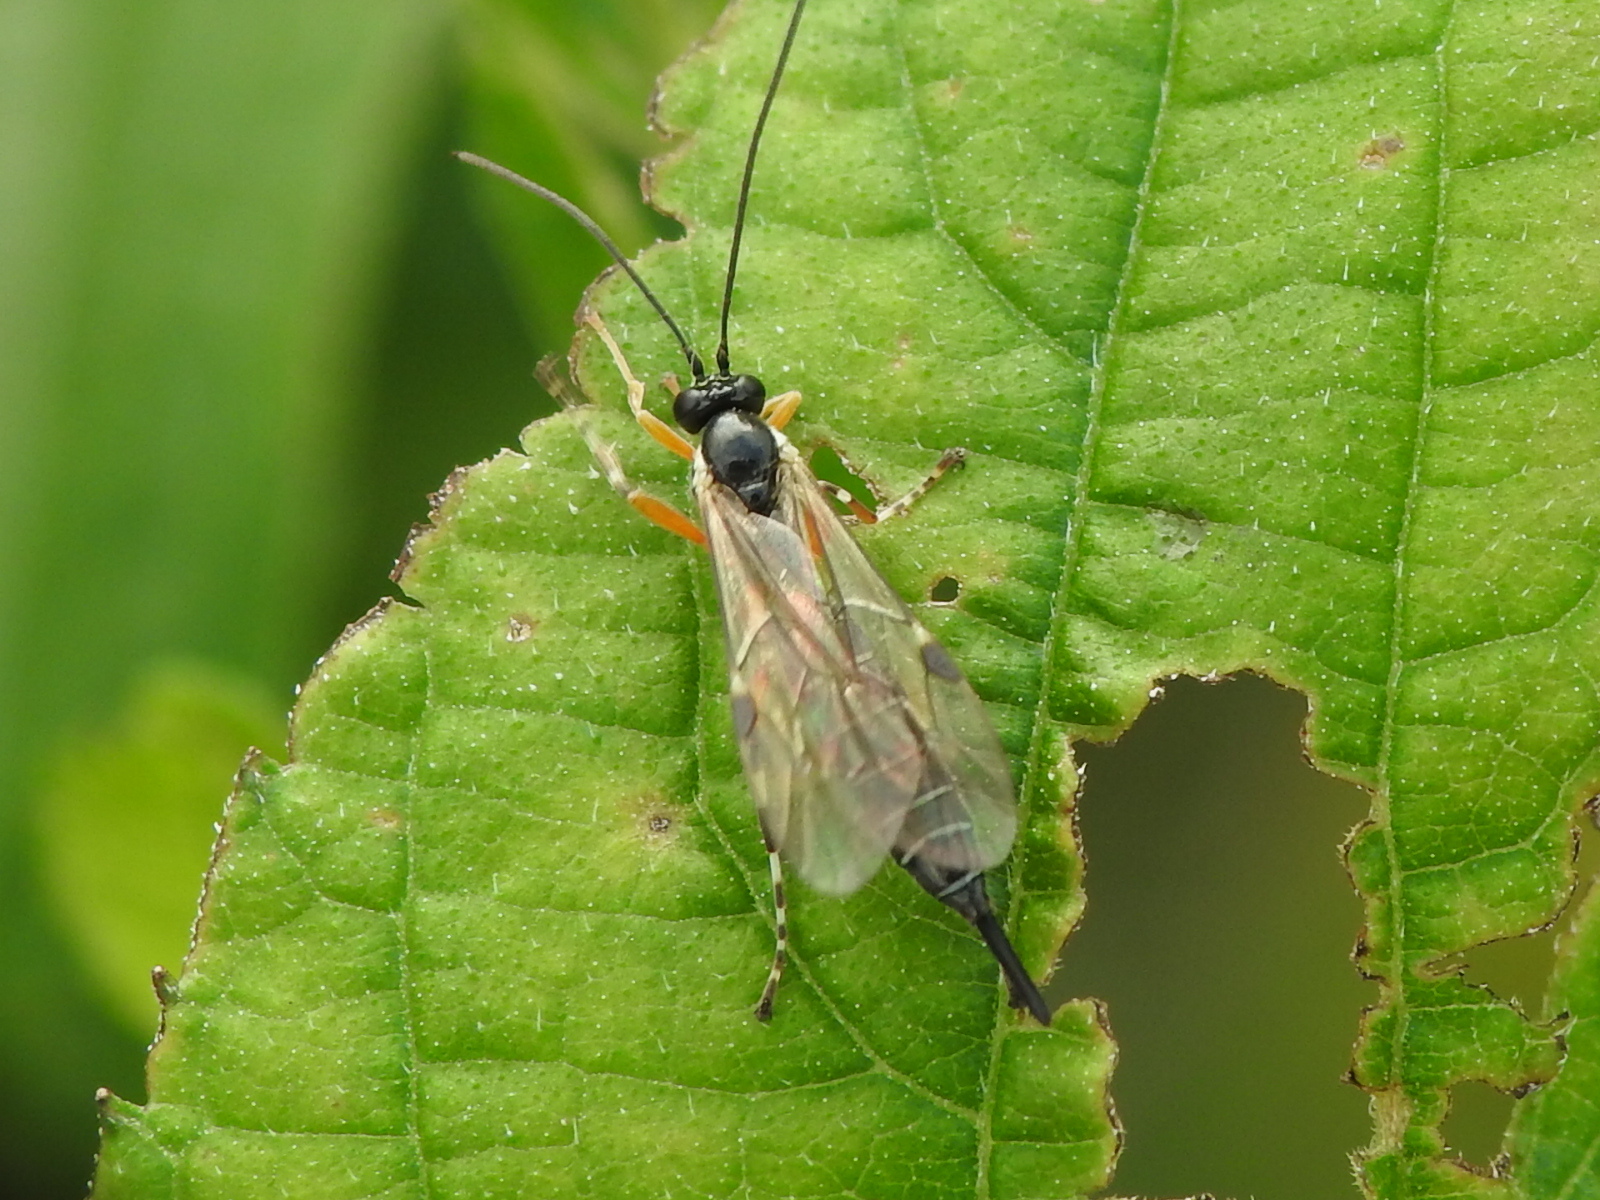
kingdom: Animalia
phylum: Arthropoda
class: Insecta
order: Hymenoptera
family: Ichneumonidae
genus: Itoplectis
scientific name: Itoplectis conquisitor
